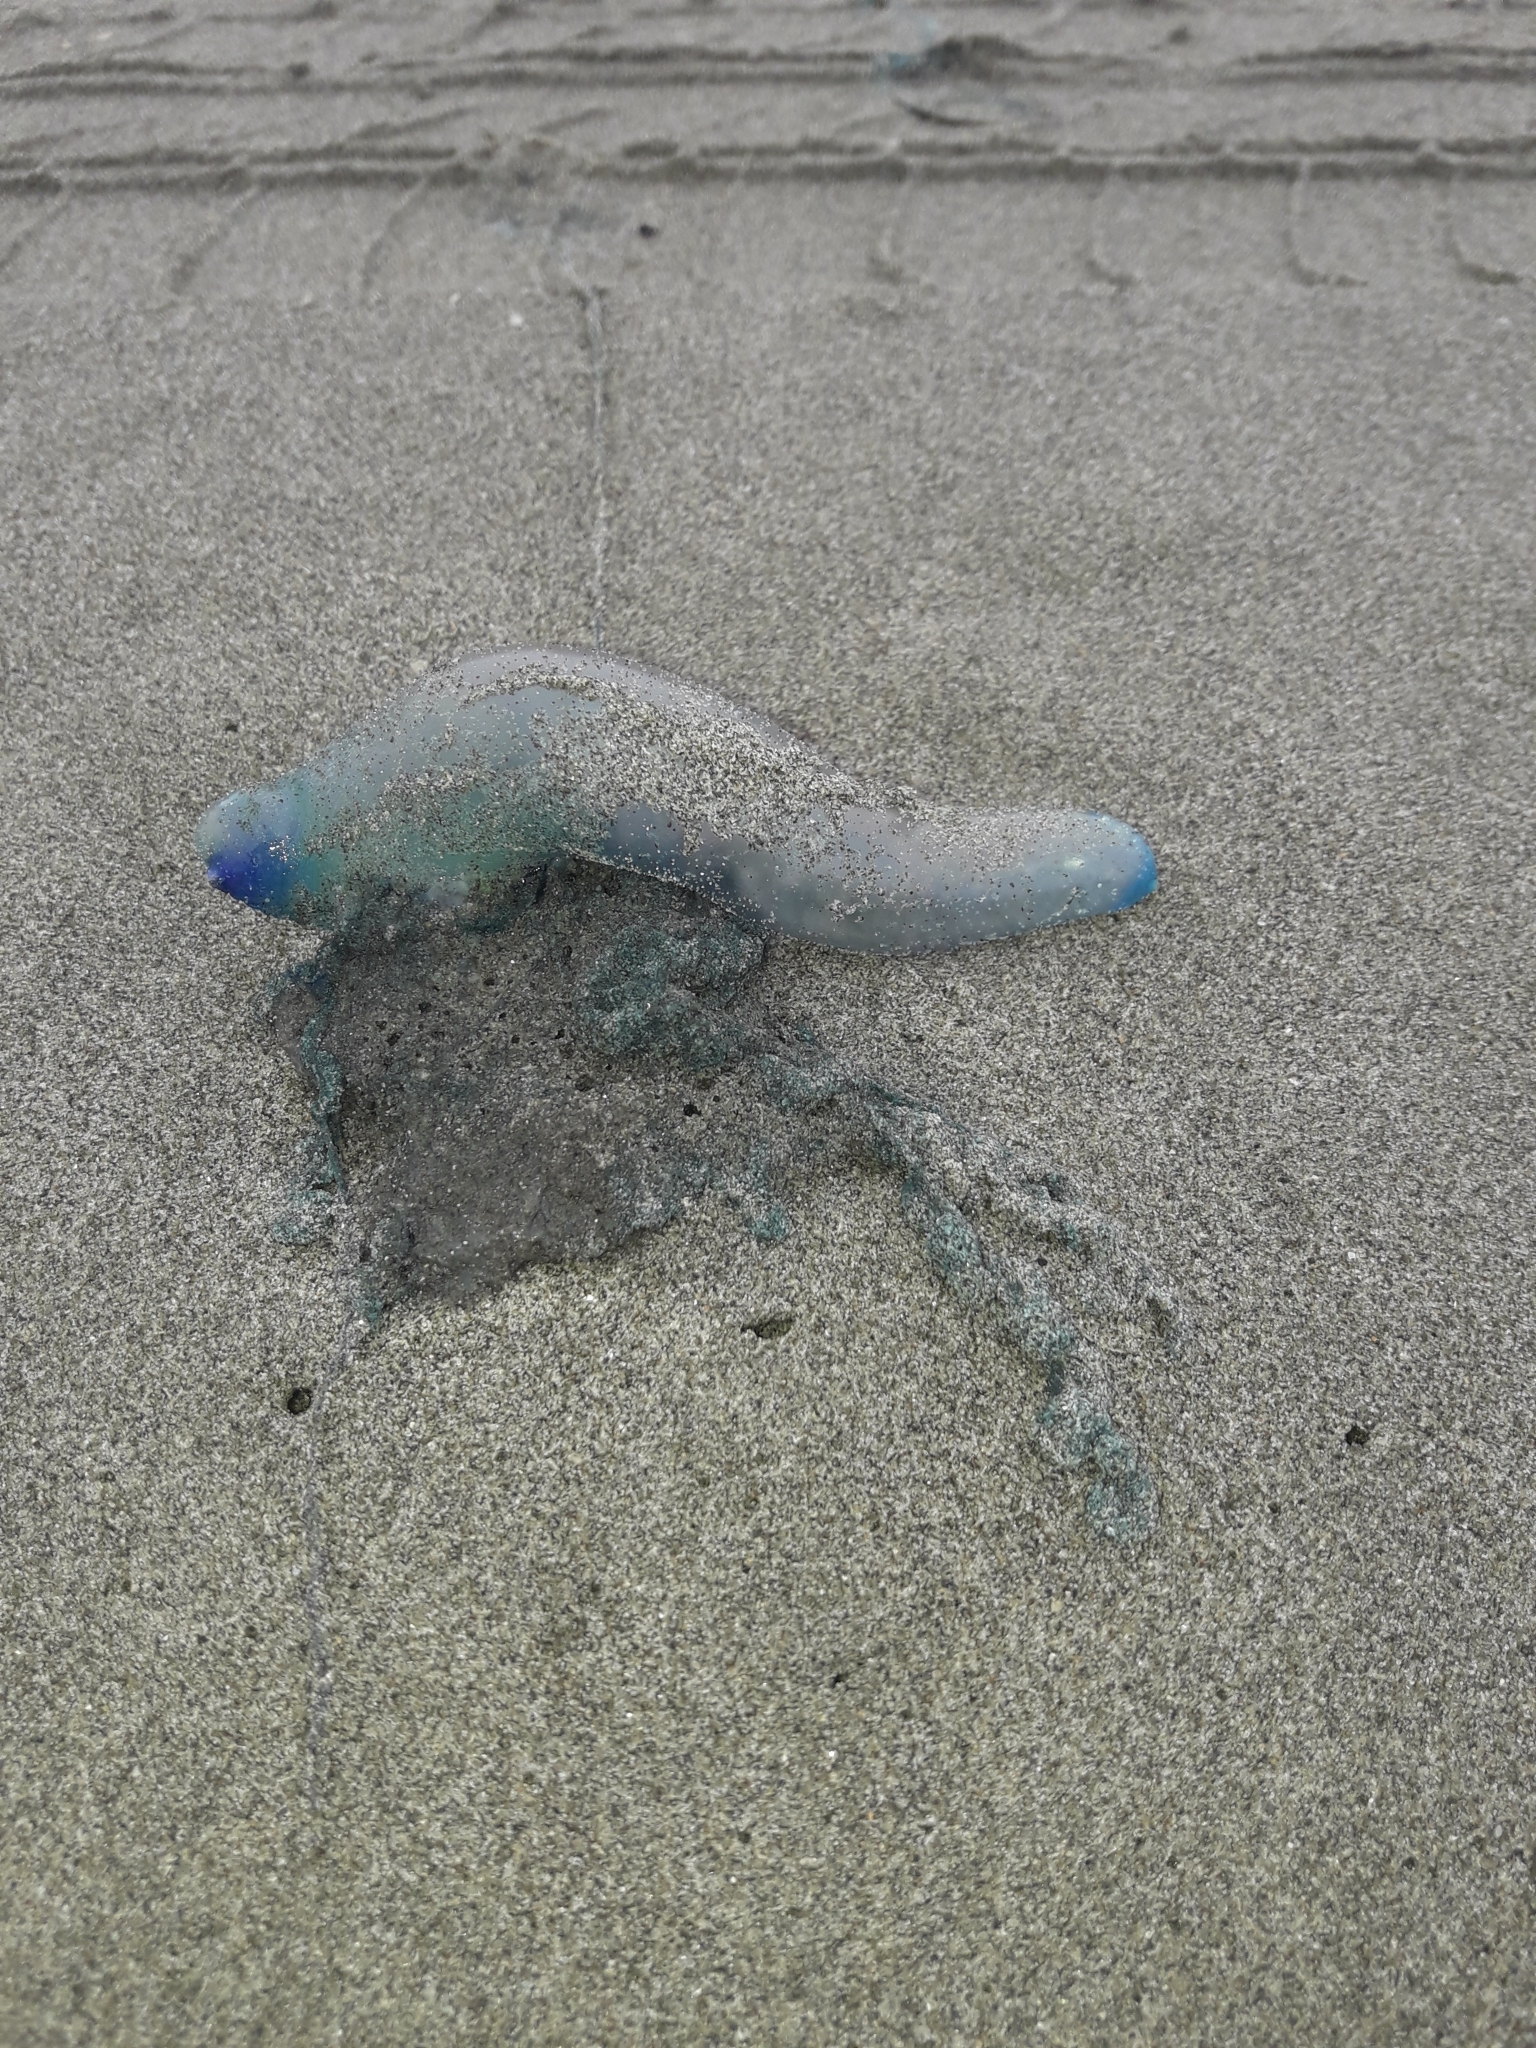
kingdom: Animalia
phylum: Cnidaria
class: Hydrozoa
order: Siphonophorae
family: Physaliidae
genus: Physalia
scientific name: Physalia physalis
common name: Portuguese man-of-war
